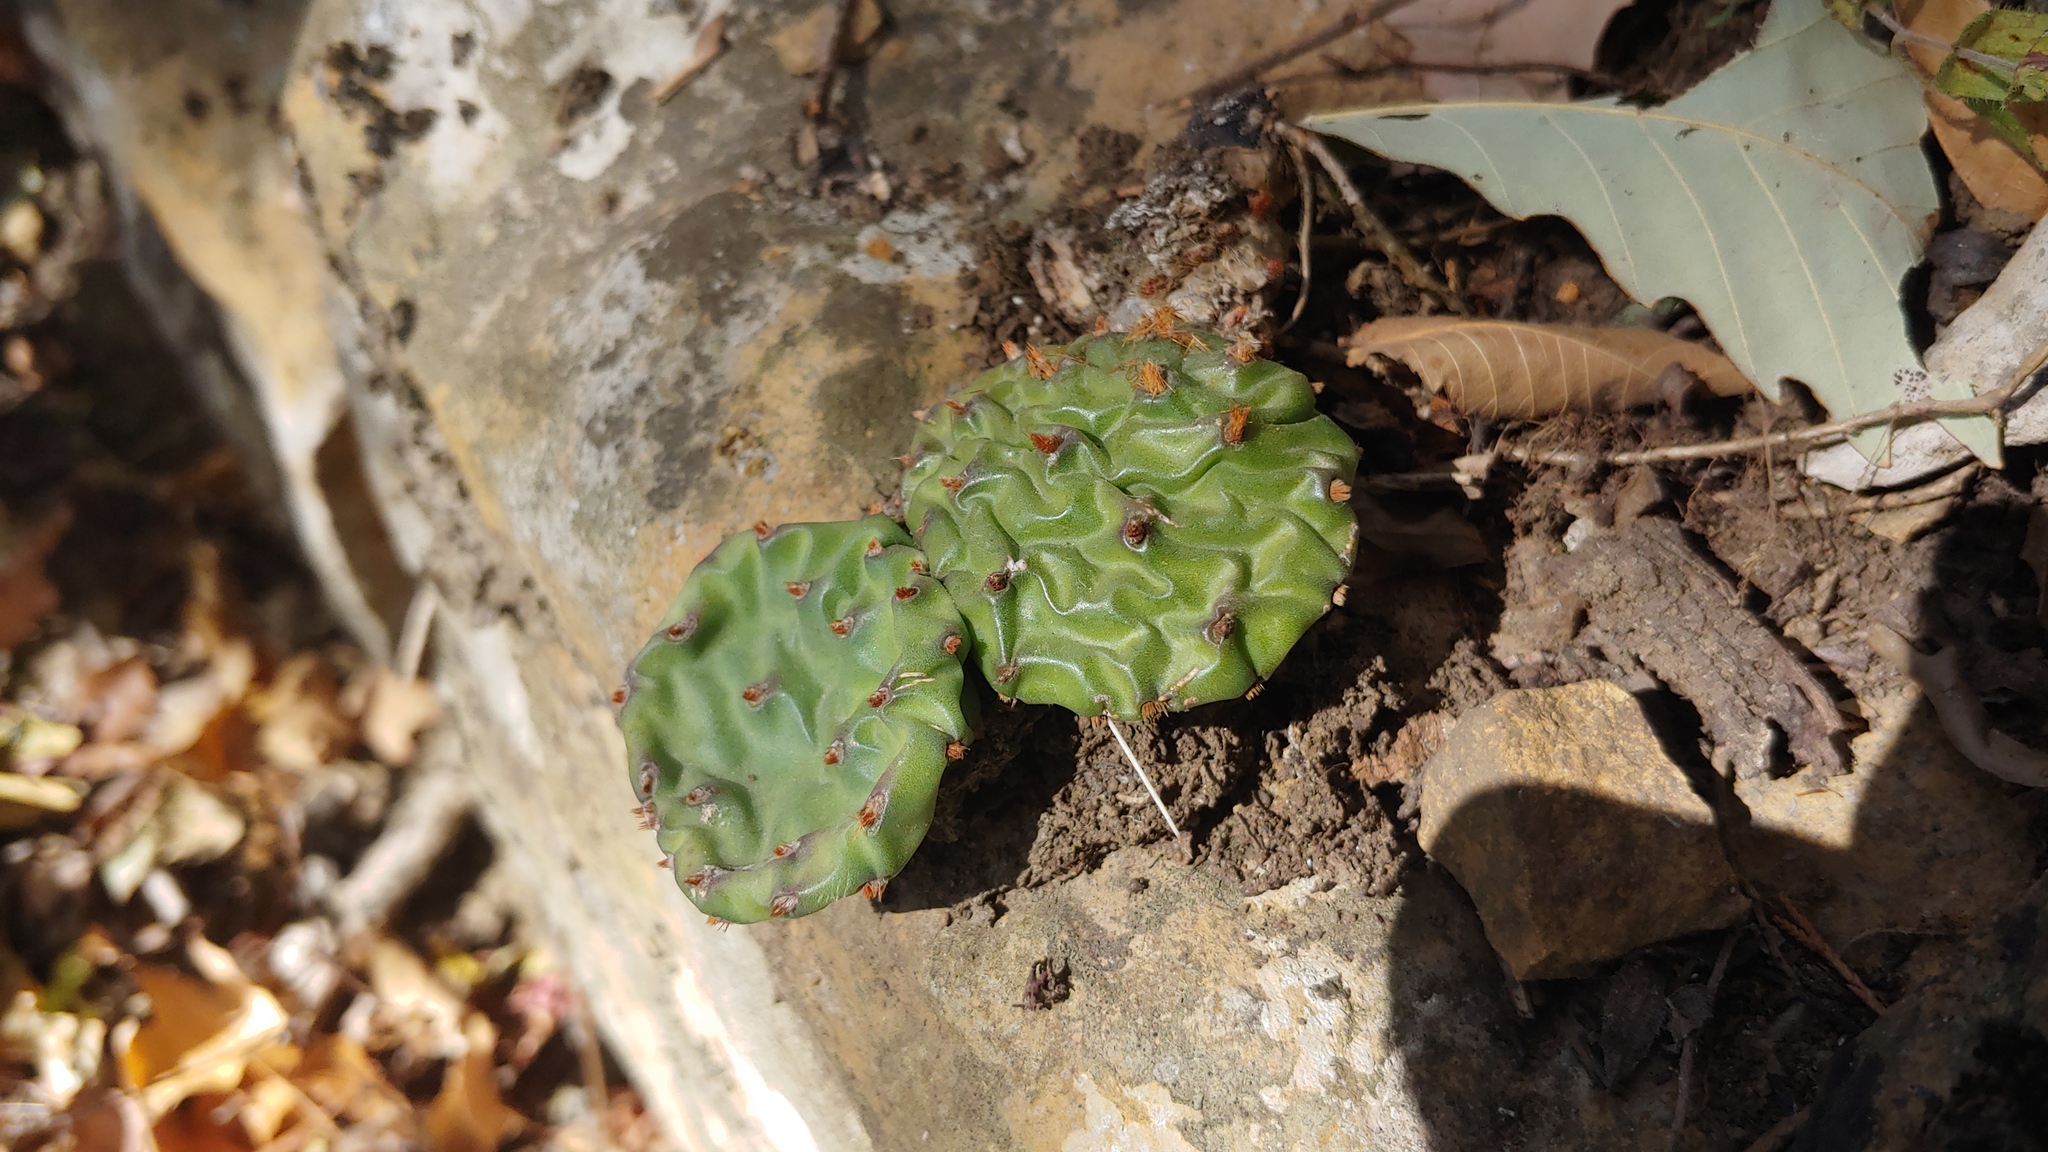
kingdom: Plantae
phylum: Tracheophyta
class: Magnoliopsida
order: Caryophyllales
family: Cactaceae
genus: Opuntia
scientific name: Opuntia humifusa
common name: Eastern prickly-pear
